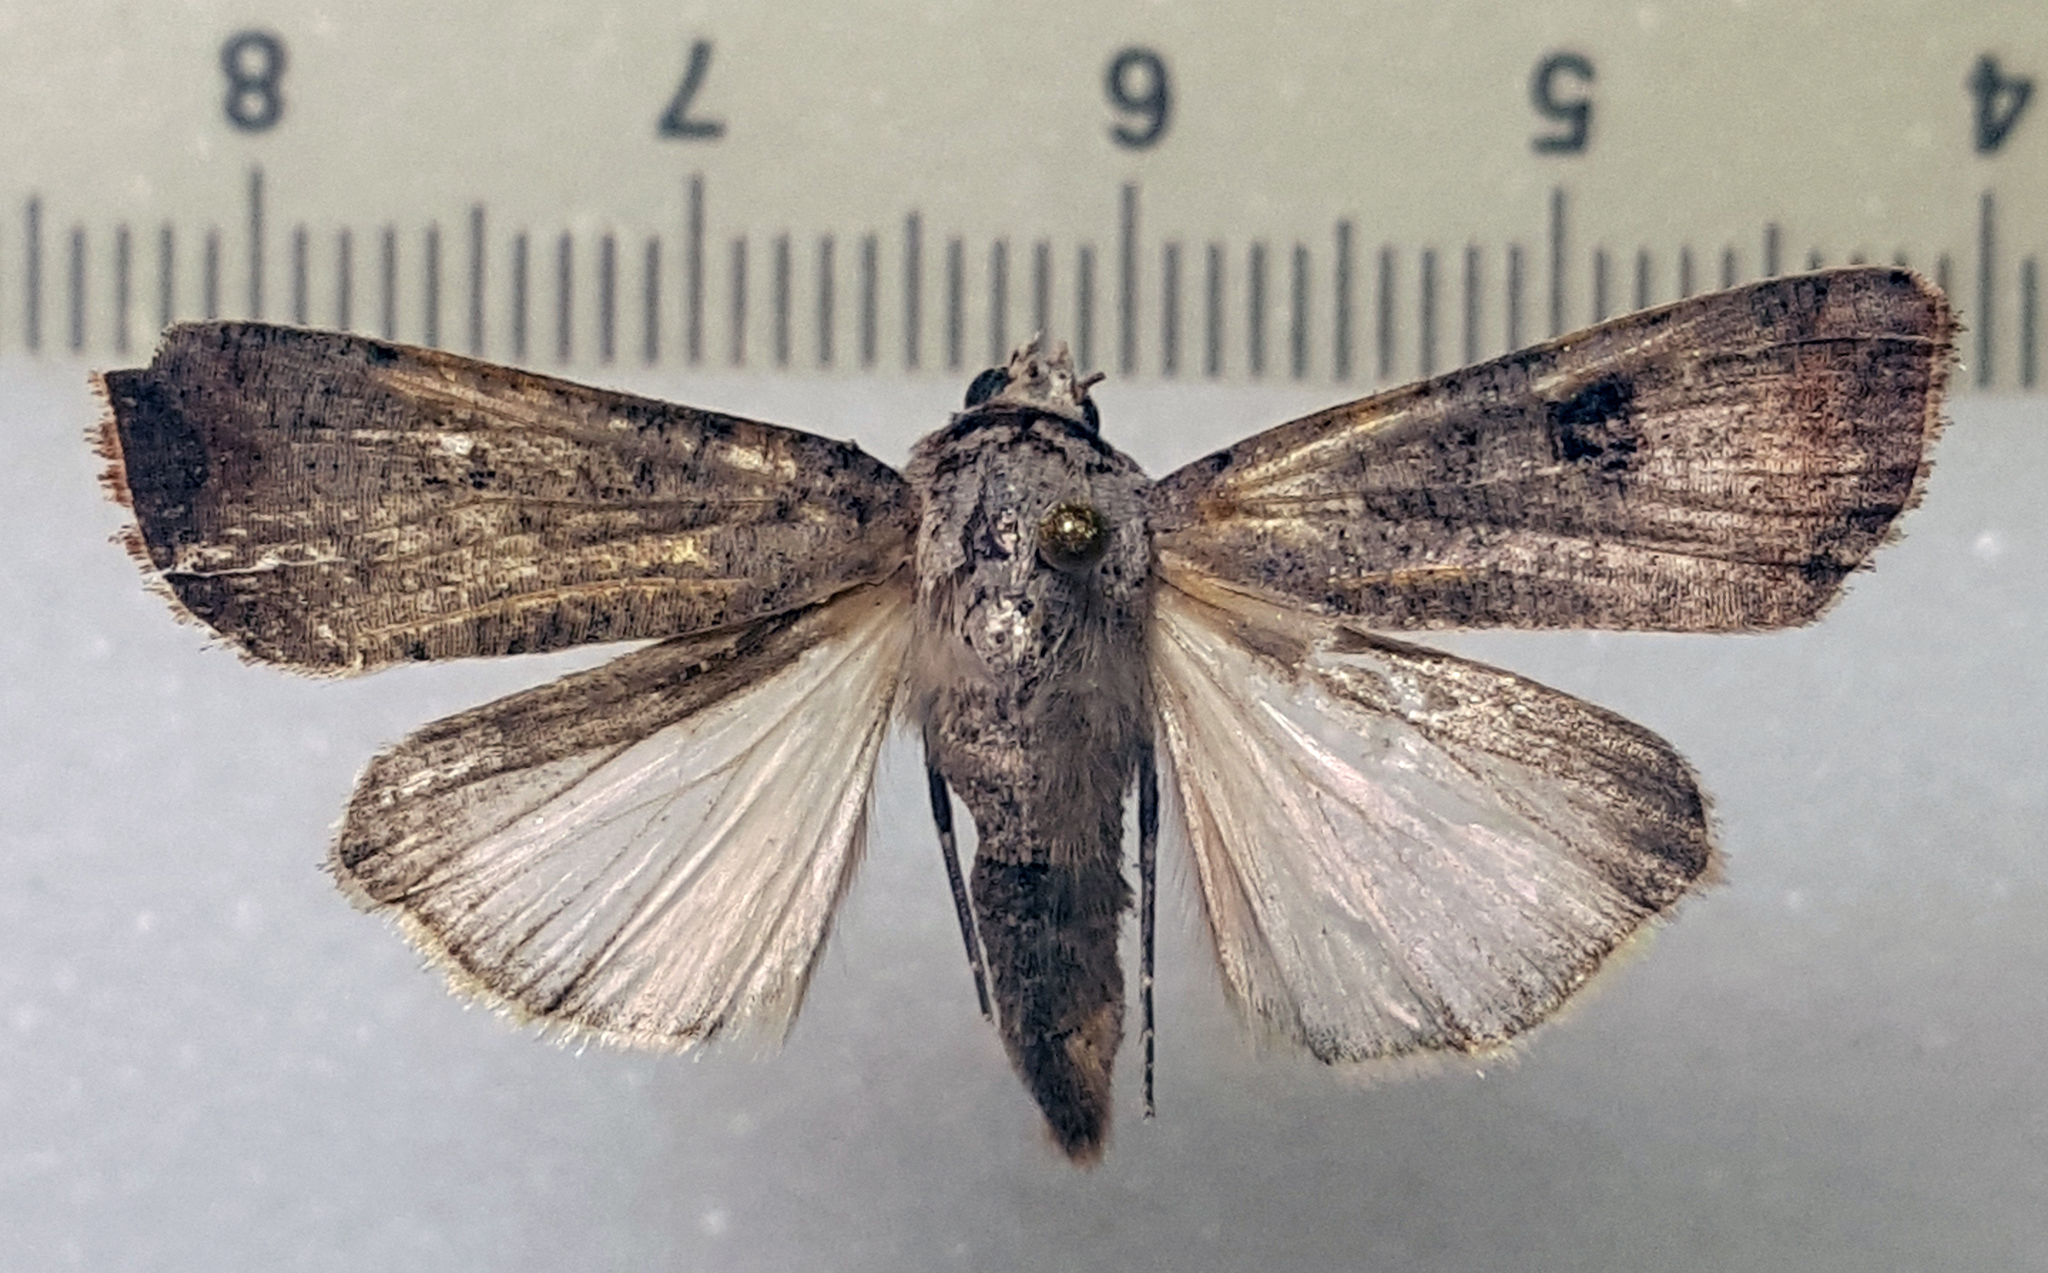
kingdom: Animalia
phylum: Arthropoda
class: Insecta
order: Lepidoptera
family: Noctuidae
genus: Anicla
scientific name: Anicla infecta
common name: Green cutworm
